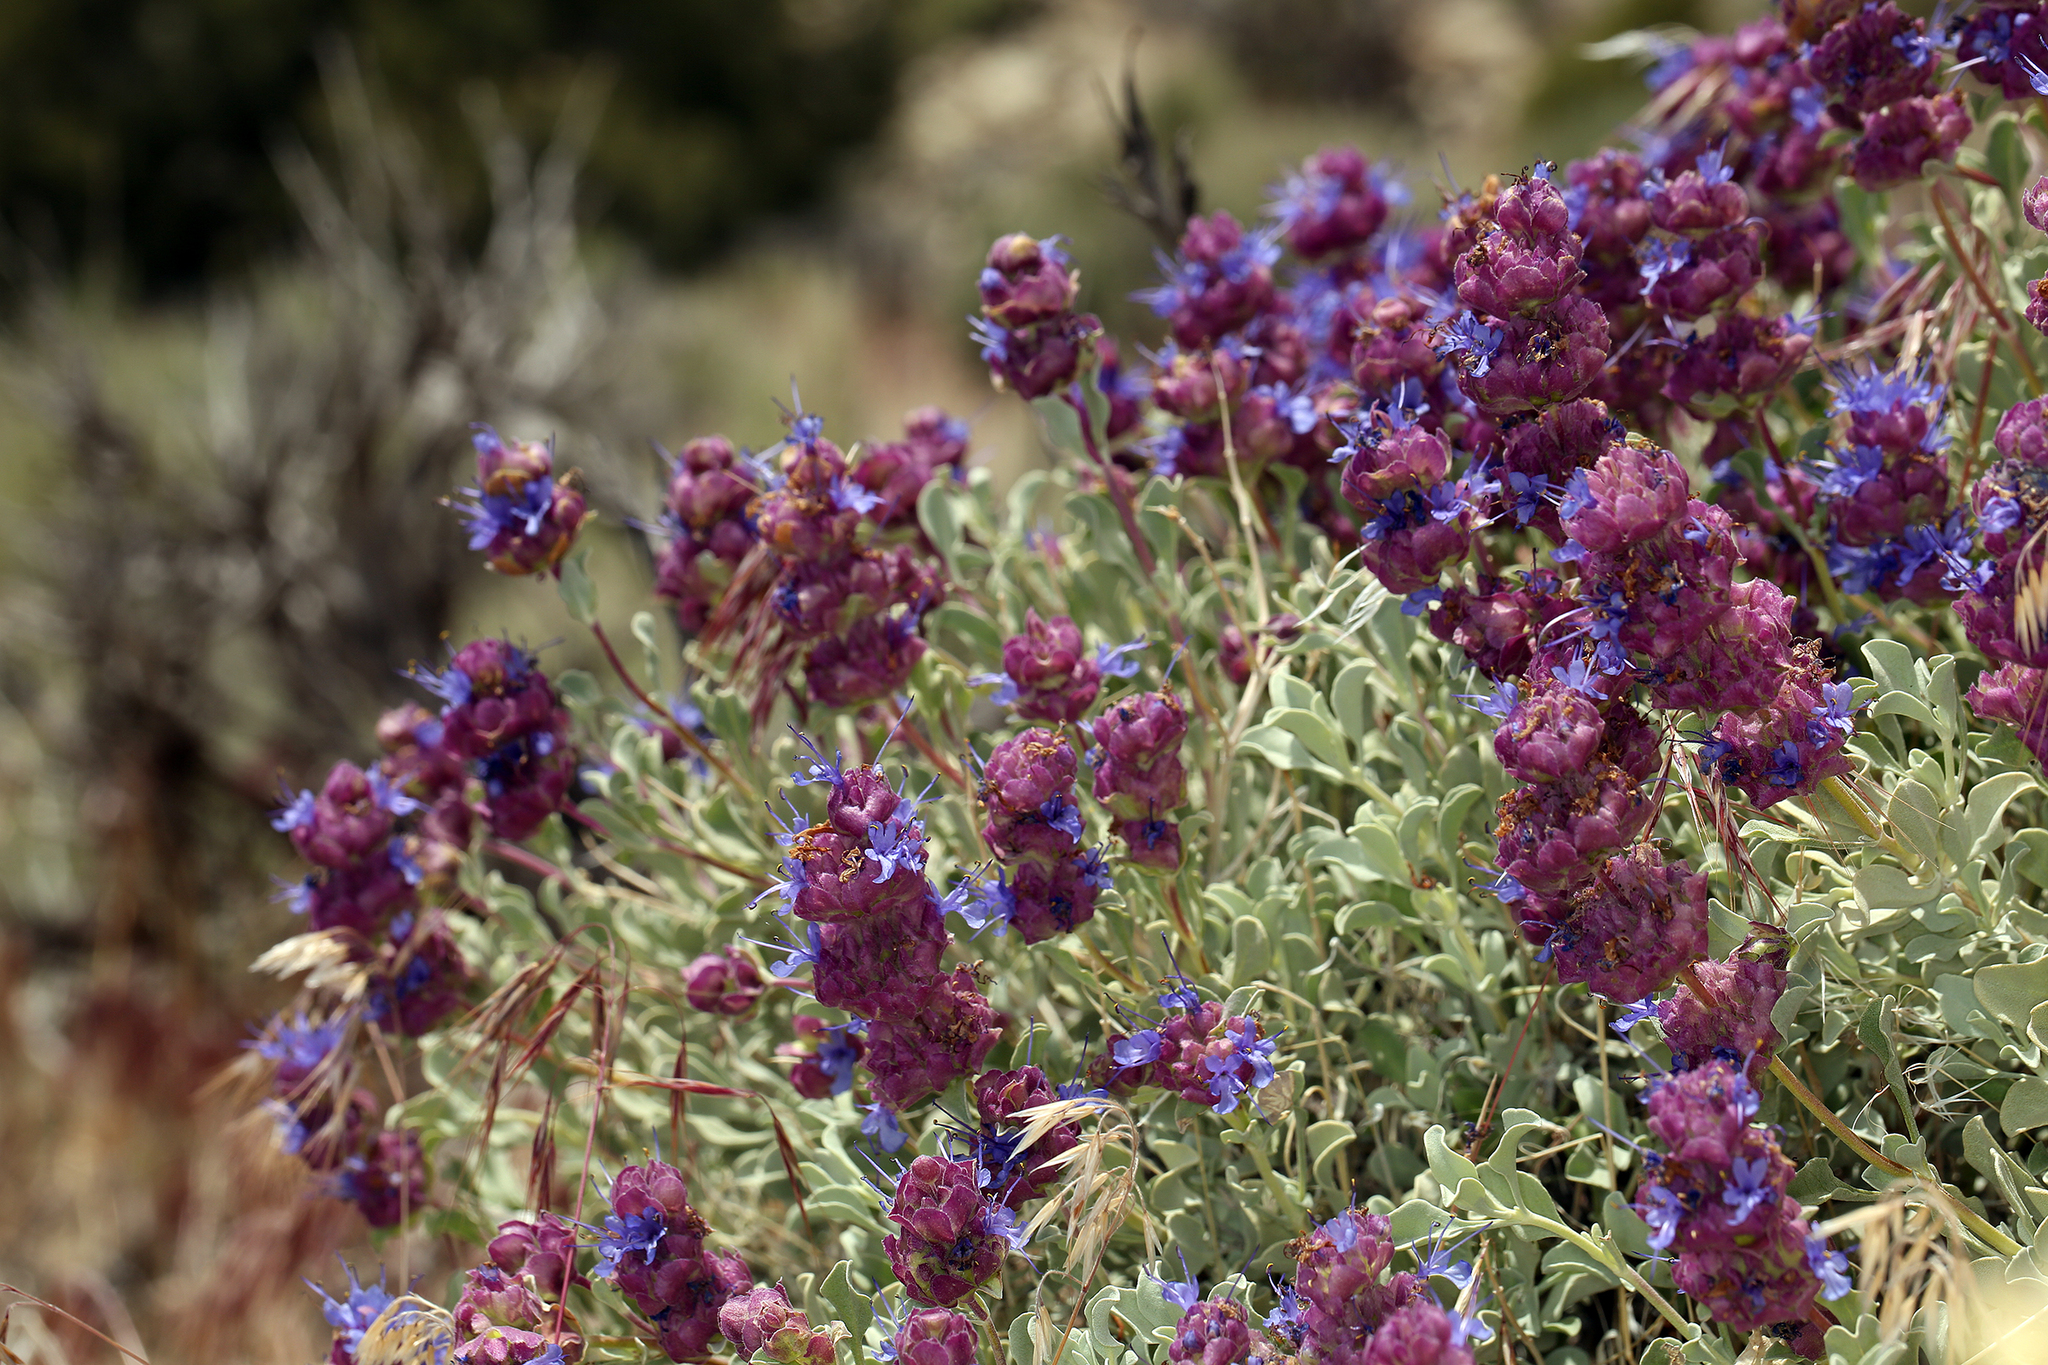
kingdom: Plantae
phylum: Tracheophyta
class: Magnoliopsida
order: Lamiales
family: Lamiaceae
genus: Salvia
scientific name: Salvia dorrii
